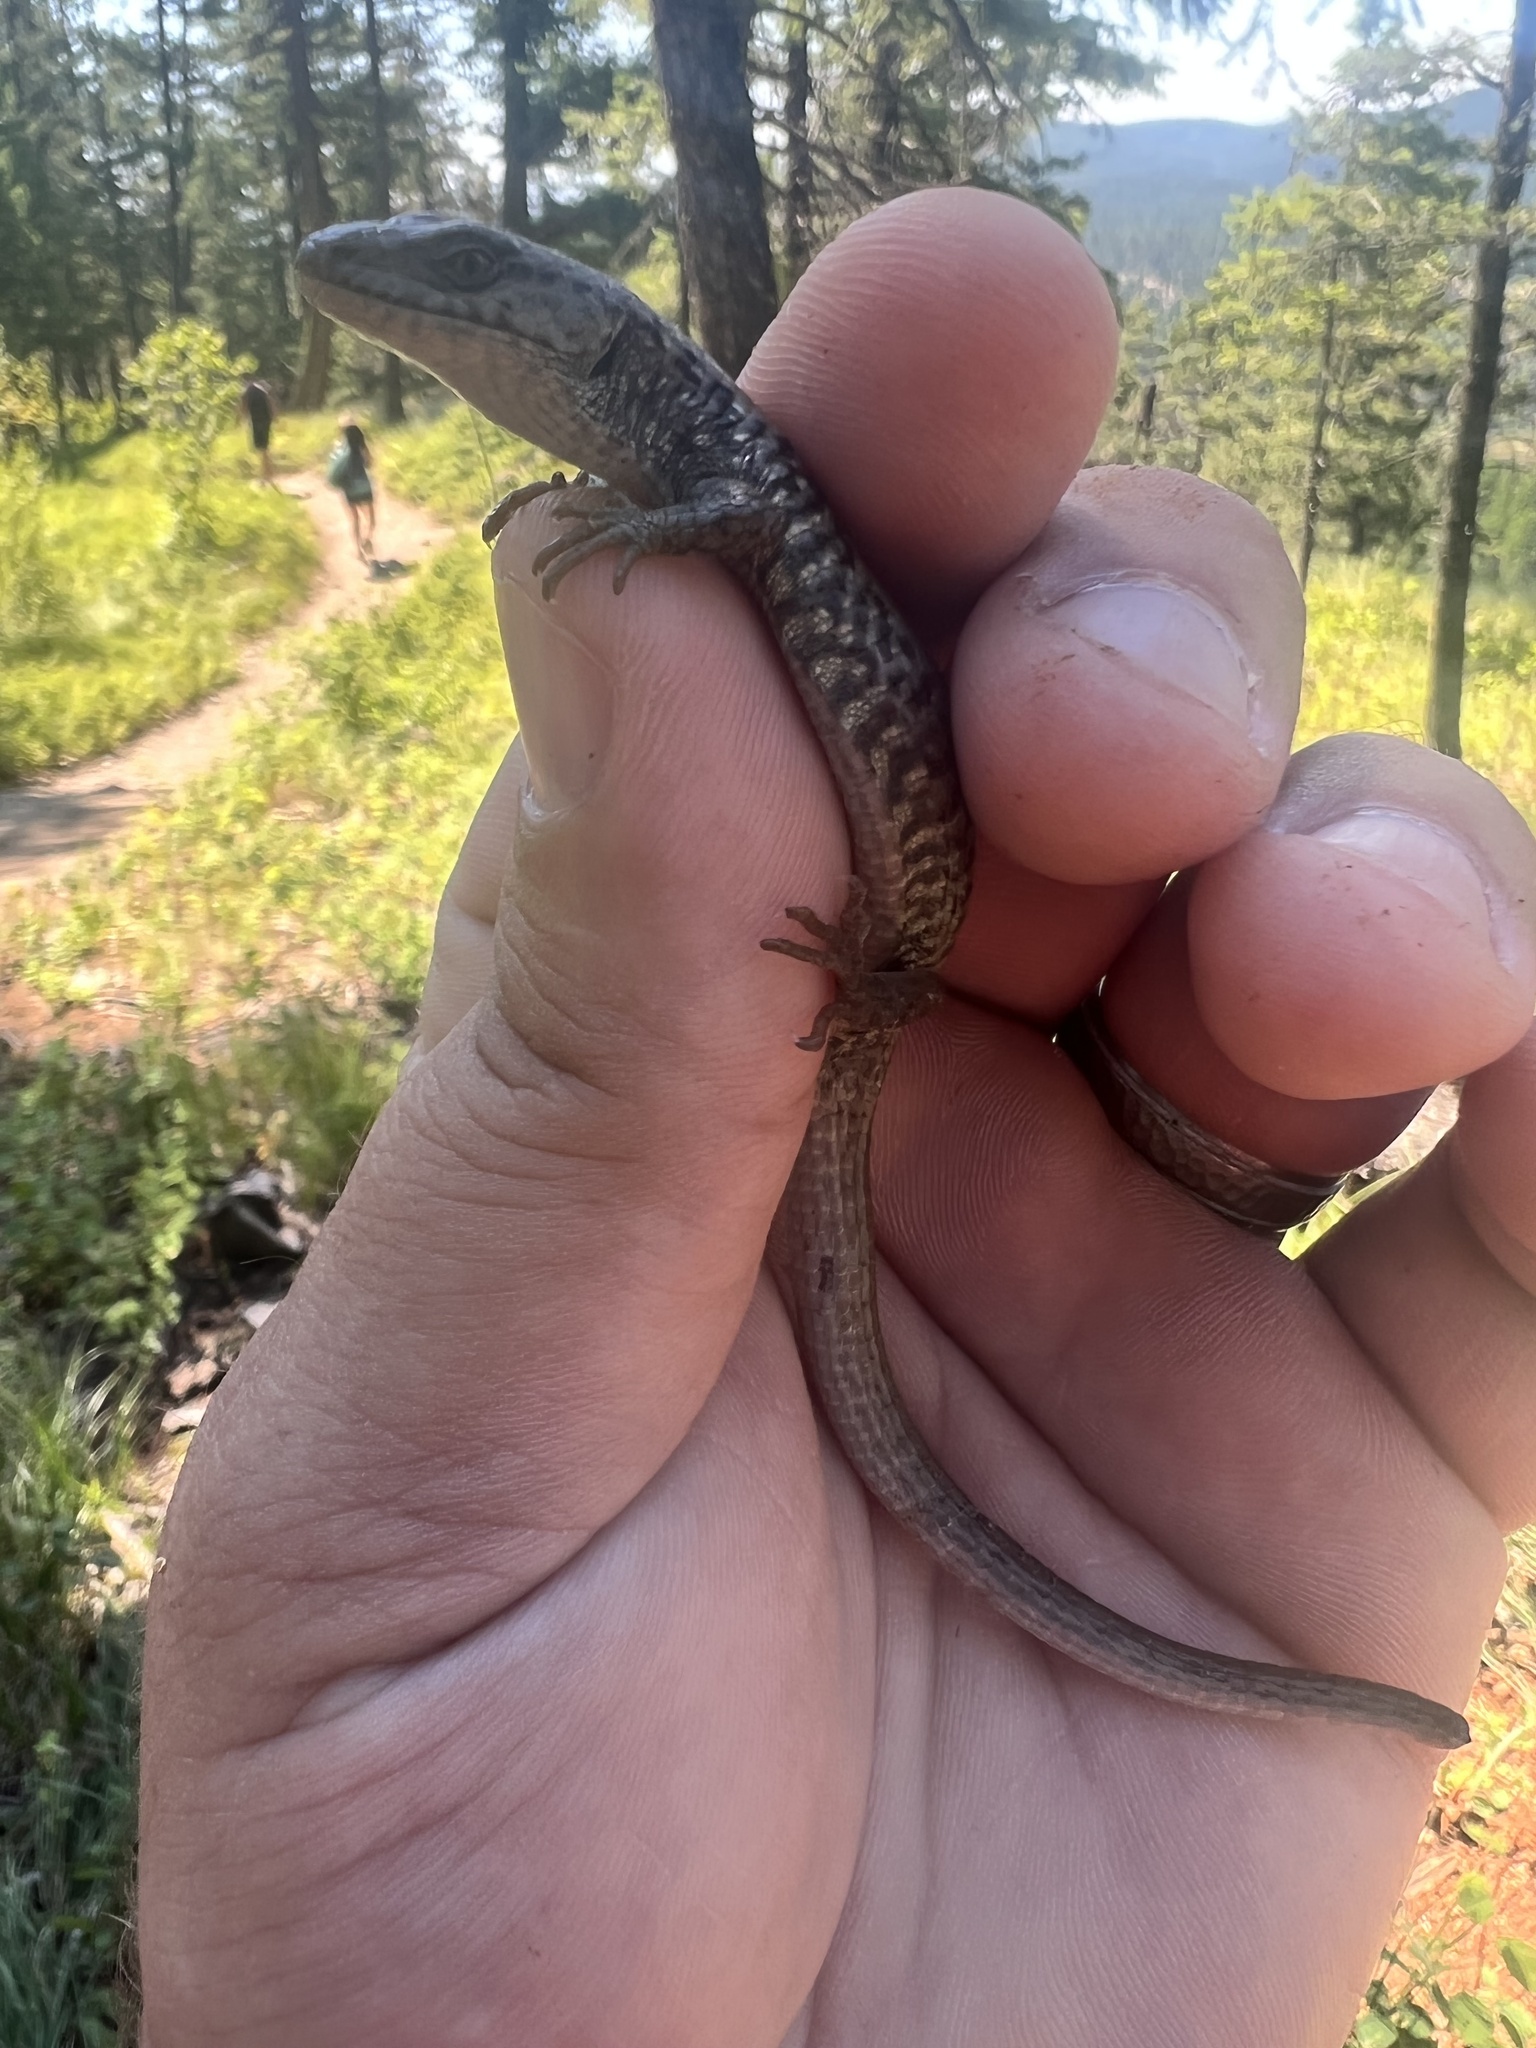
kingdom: Animalia
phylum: Chordata
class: Squamata
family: Anguidae
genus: Elgaria
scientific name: Elgaria coerulea
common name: Northern alligator lizard
